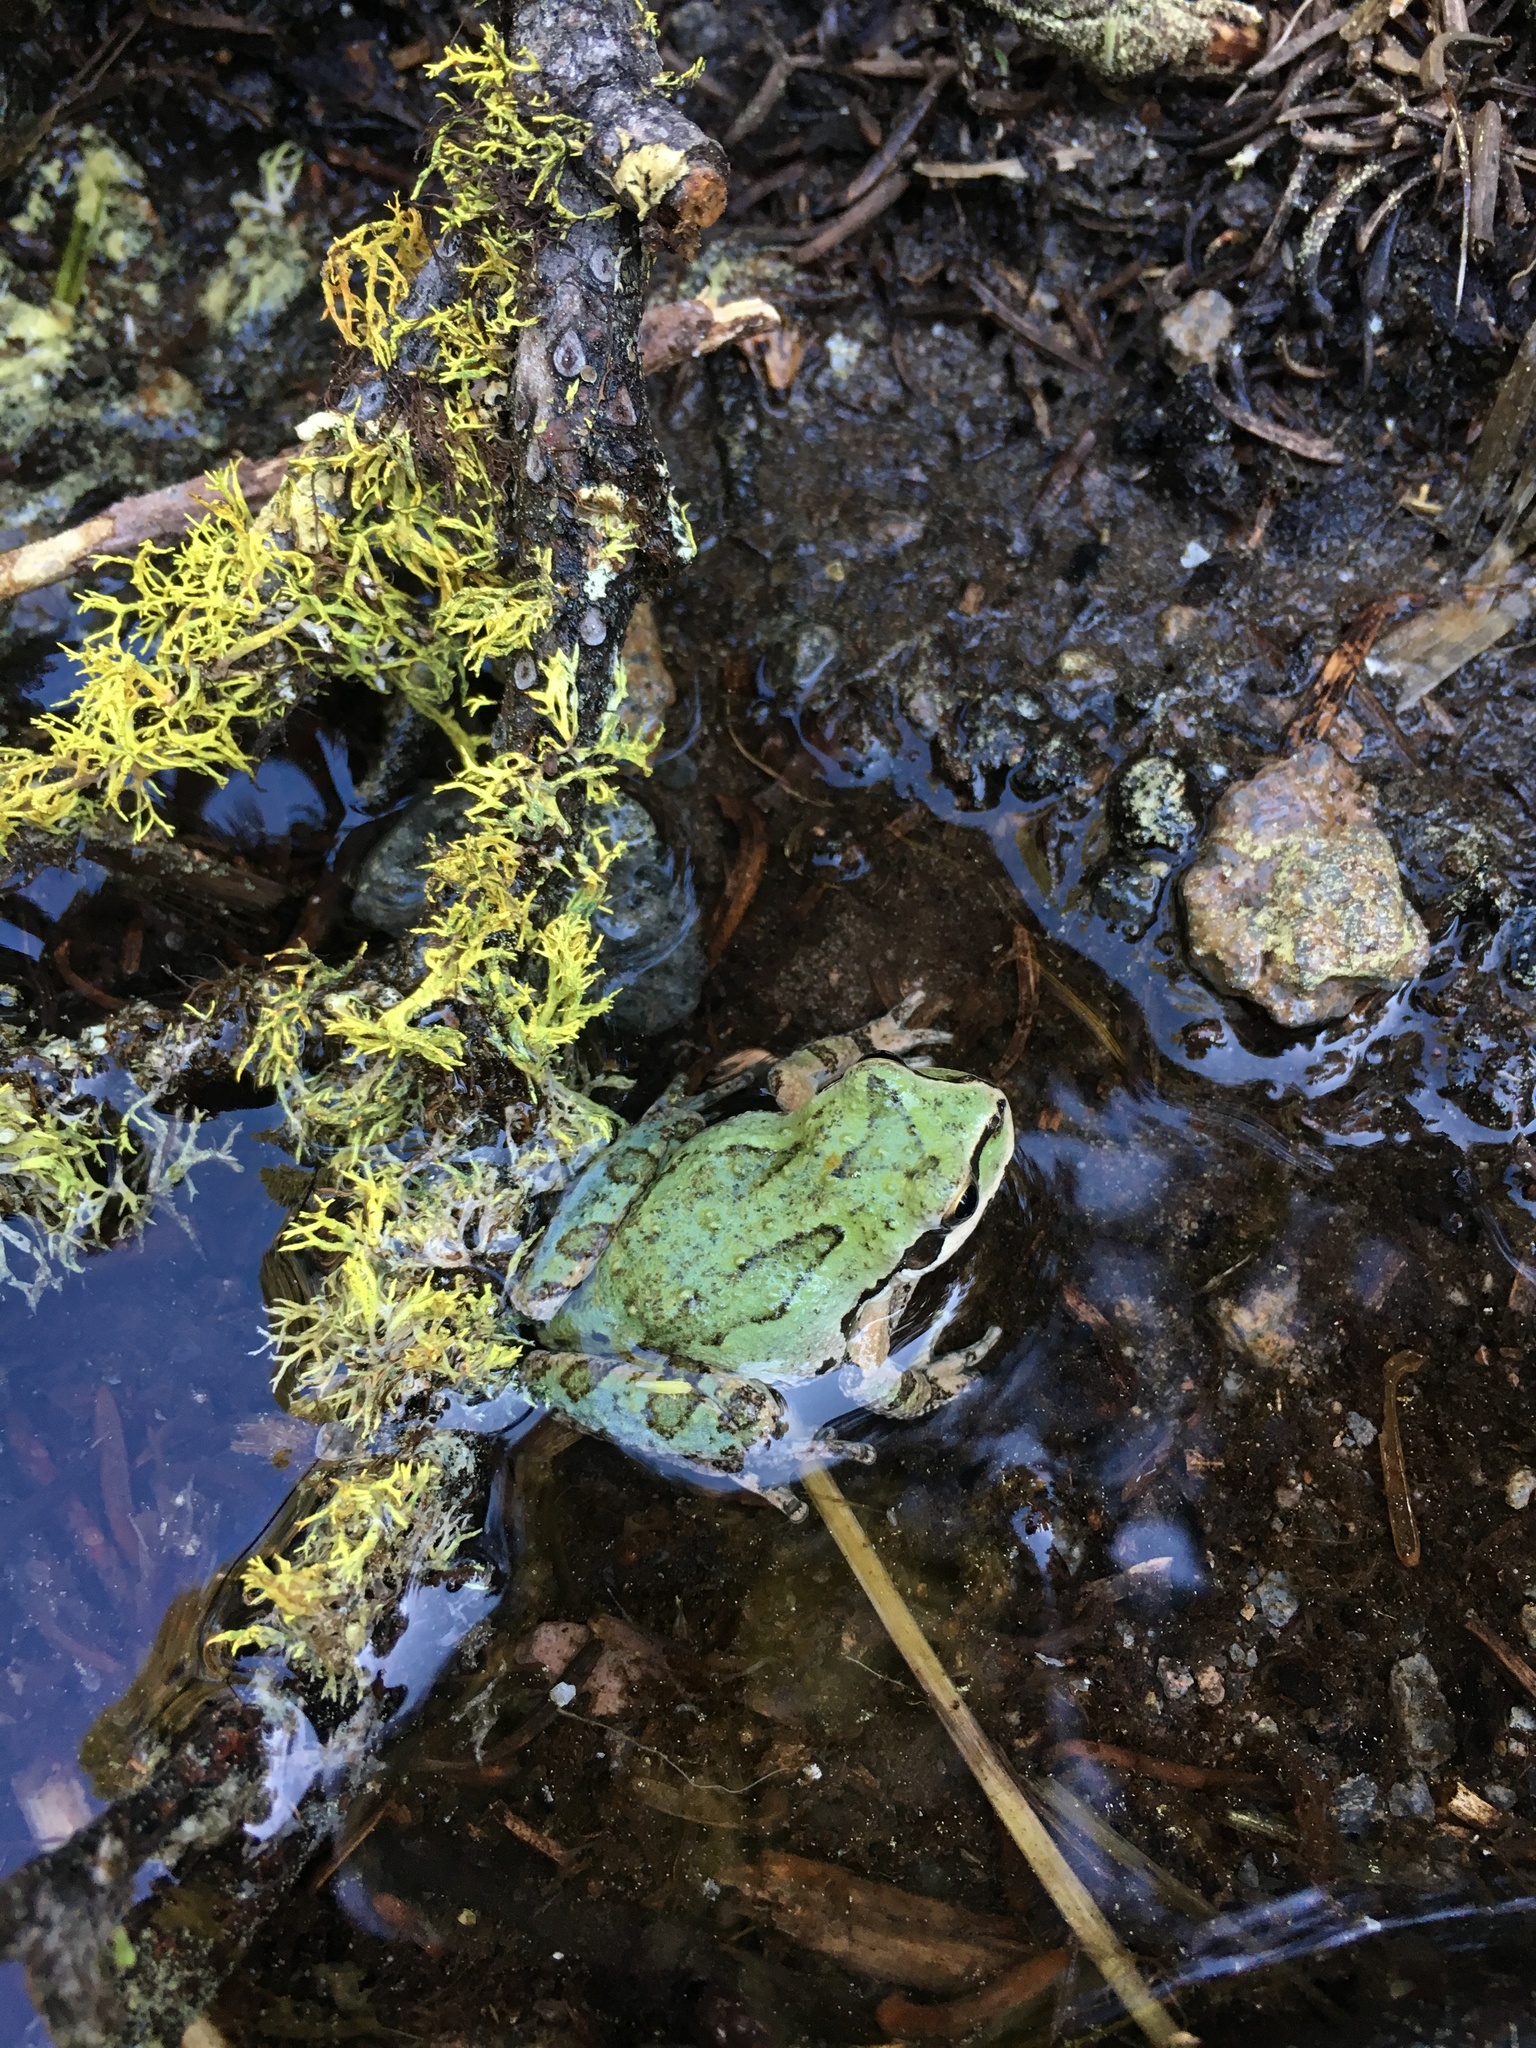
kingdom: Animalia
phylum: Chordata
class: Amphibia
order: Anura
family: Hylidae
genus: Pseudacris
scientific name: Pseudacris regilla
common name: Pacific chorus frog
